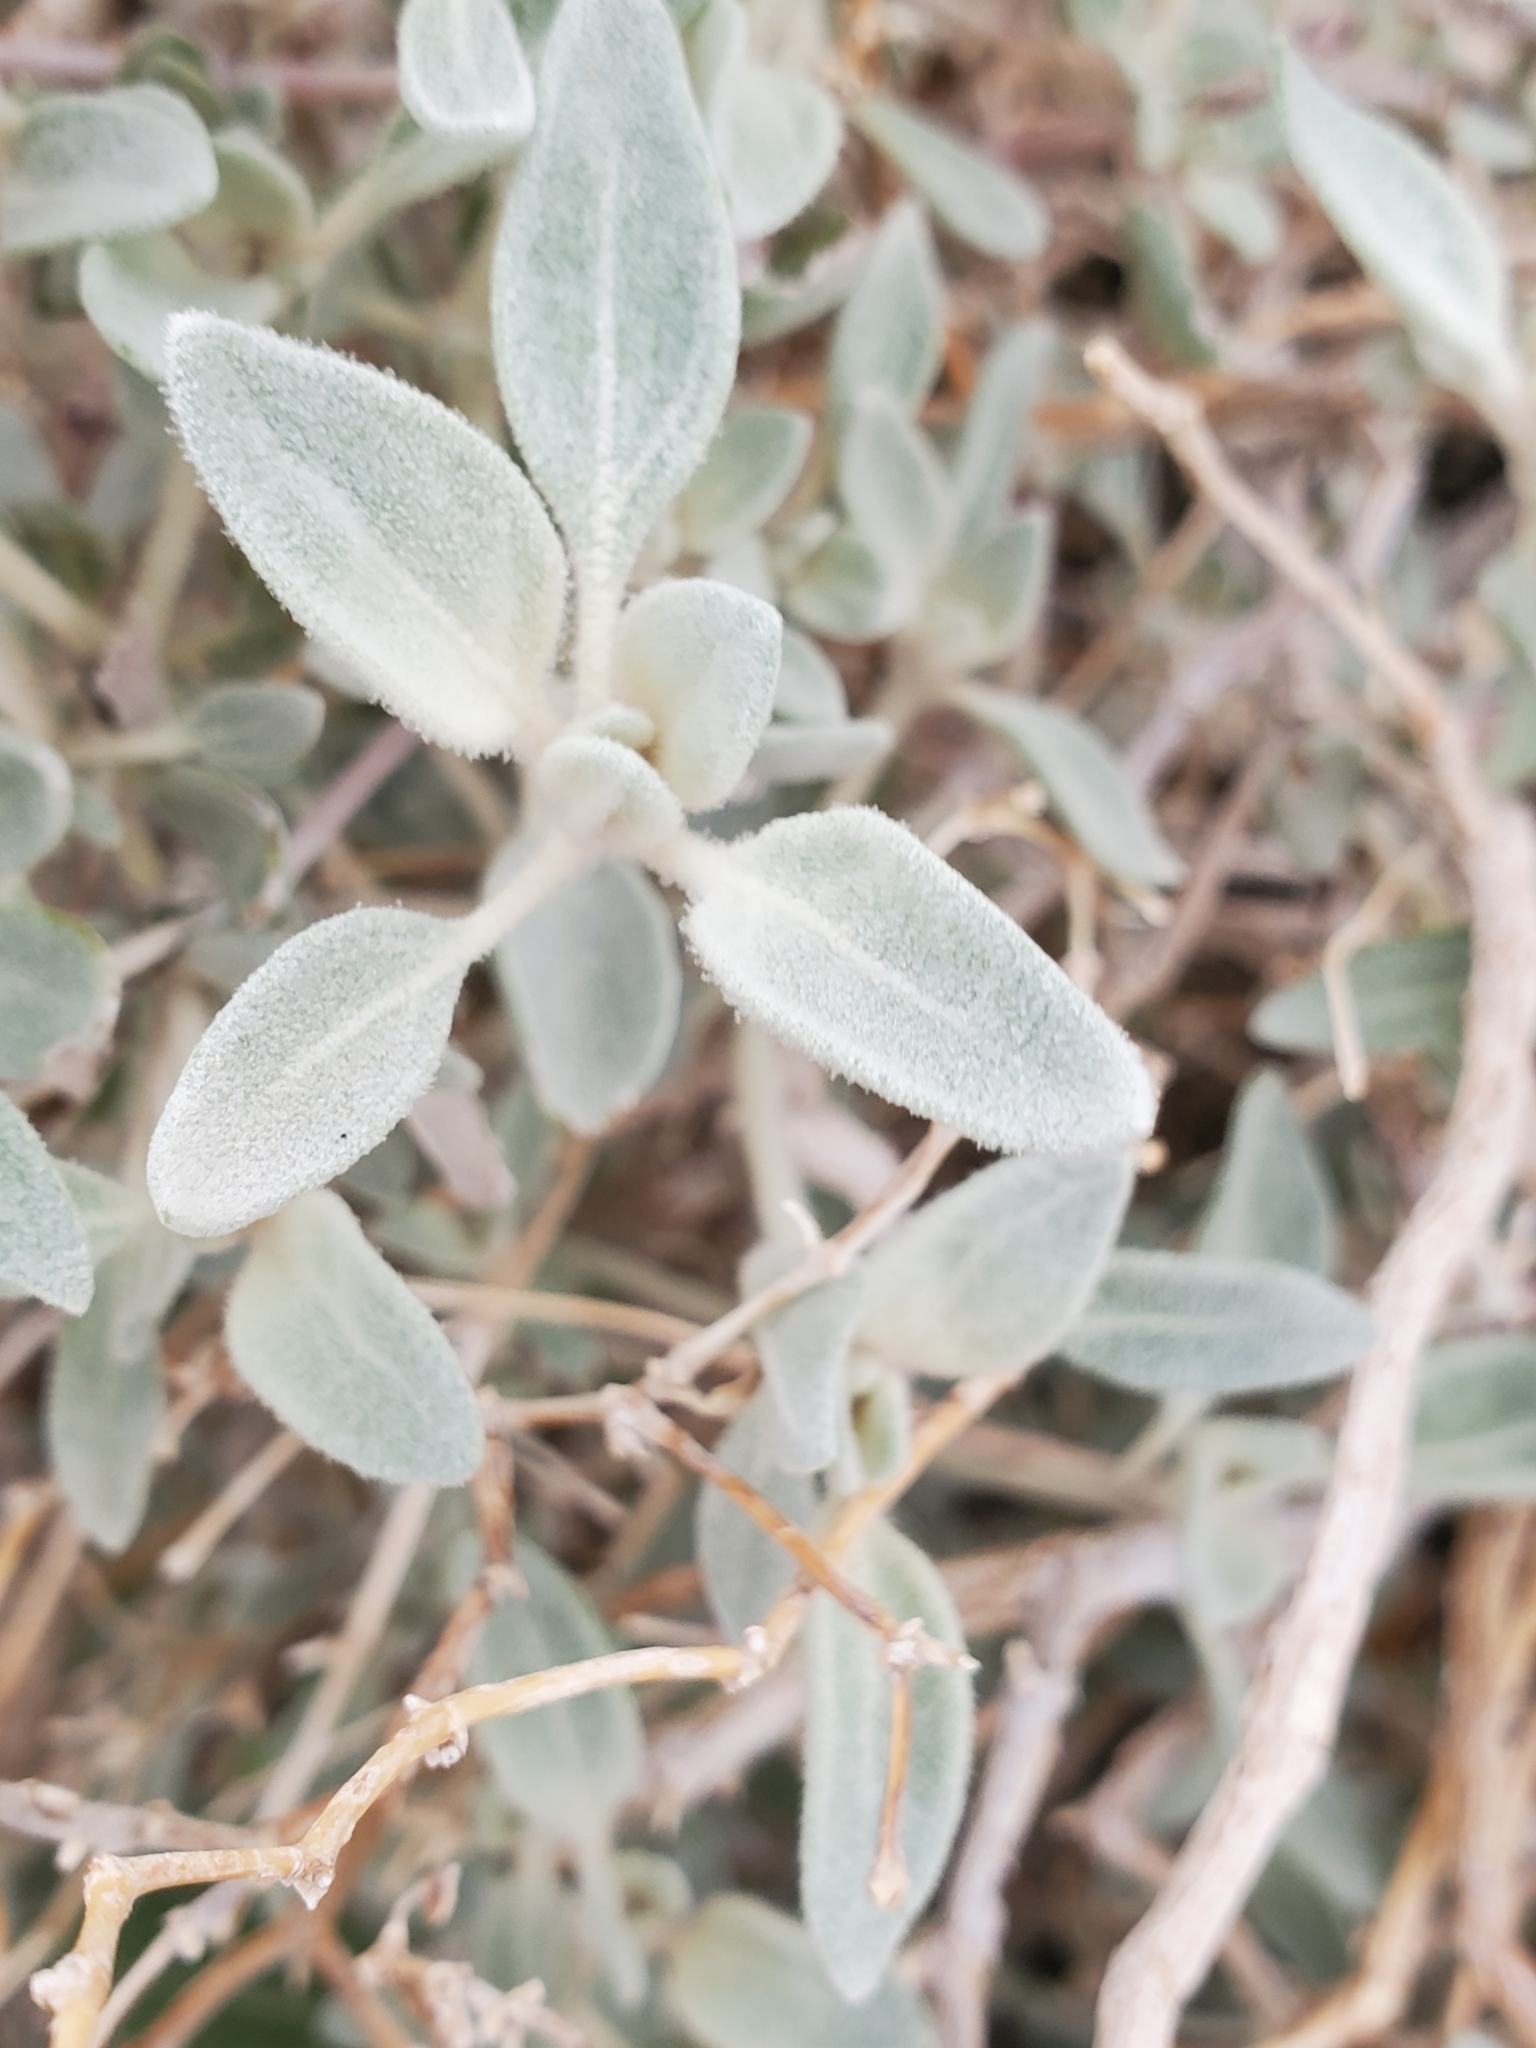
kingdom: Plantae
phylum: Tracheophyta
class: Magnoliopsida
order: Caryophyllales
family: Amaranthaceae
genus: Tidestromia
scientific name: Tidestromia suffruticosa
